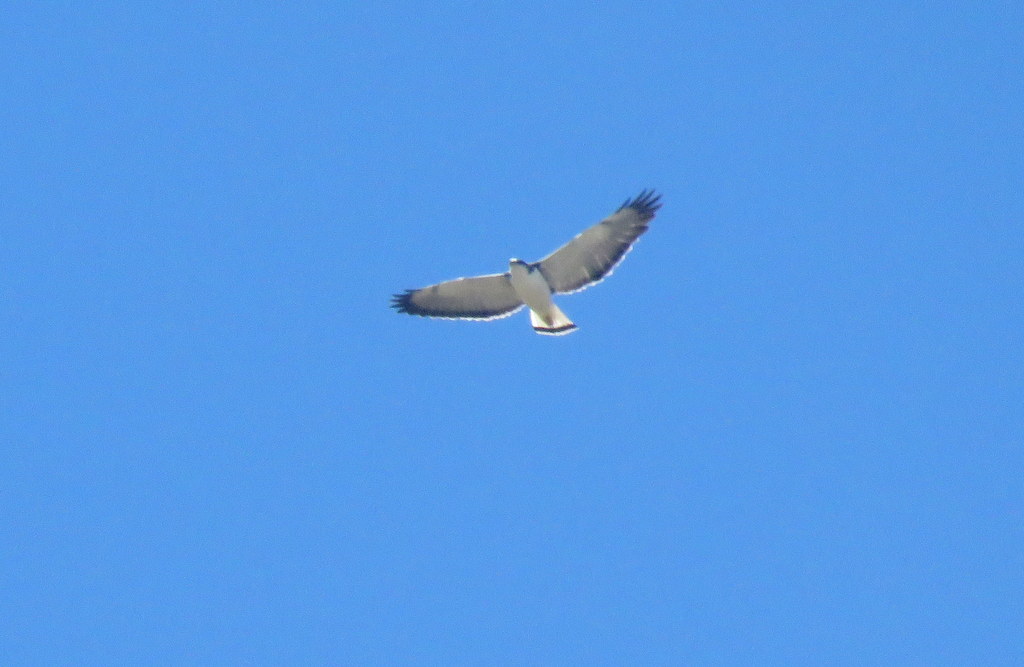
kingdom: Animalia
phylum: Chordata
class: Aves
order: Accipitriformes
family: Accipitridae
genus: Buteo
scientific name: Buteo polyosoma
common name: Variable hawk
